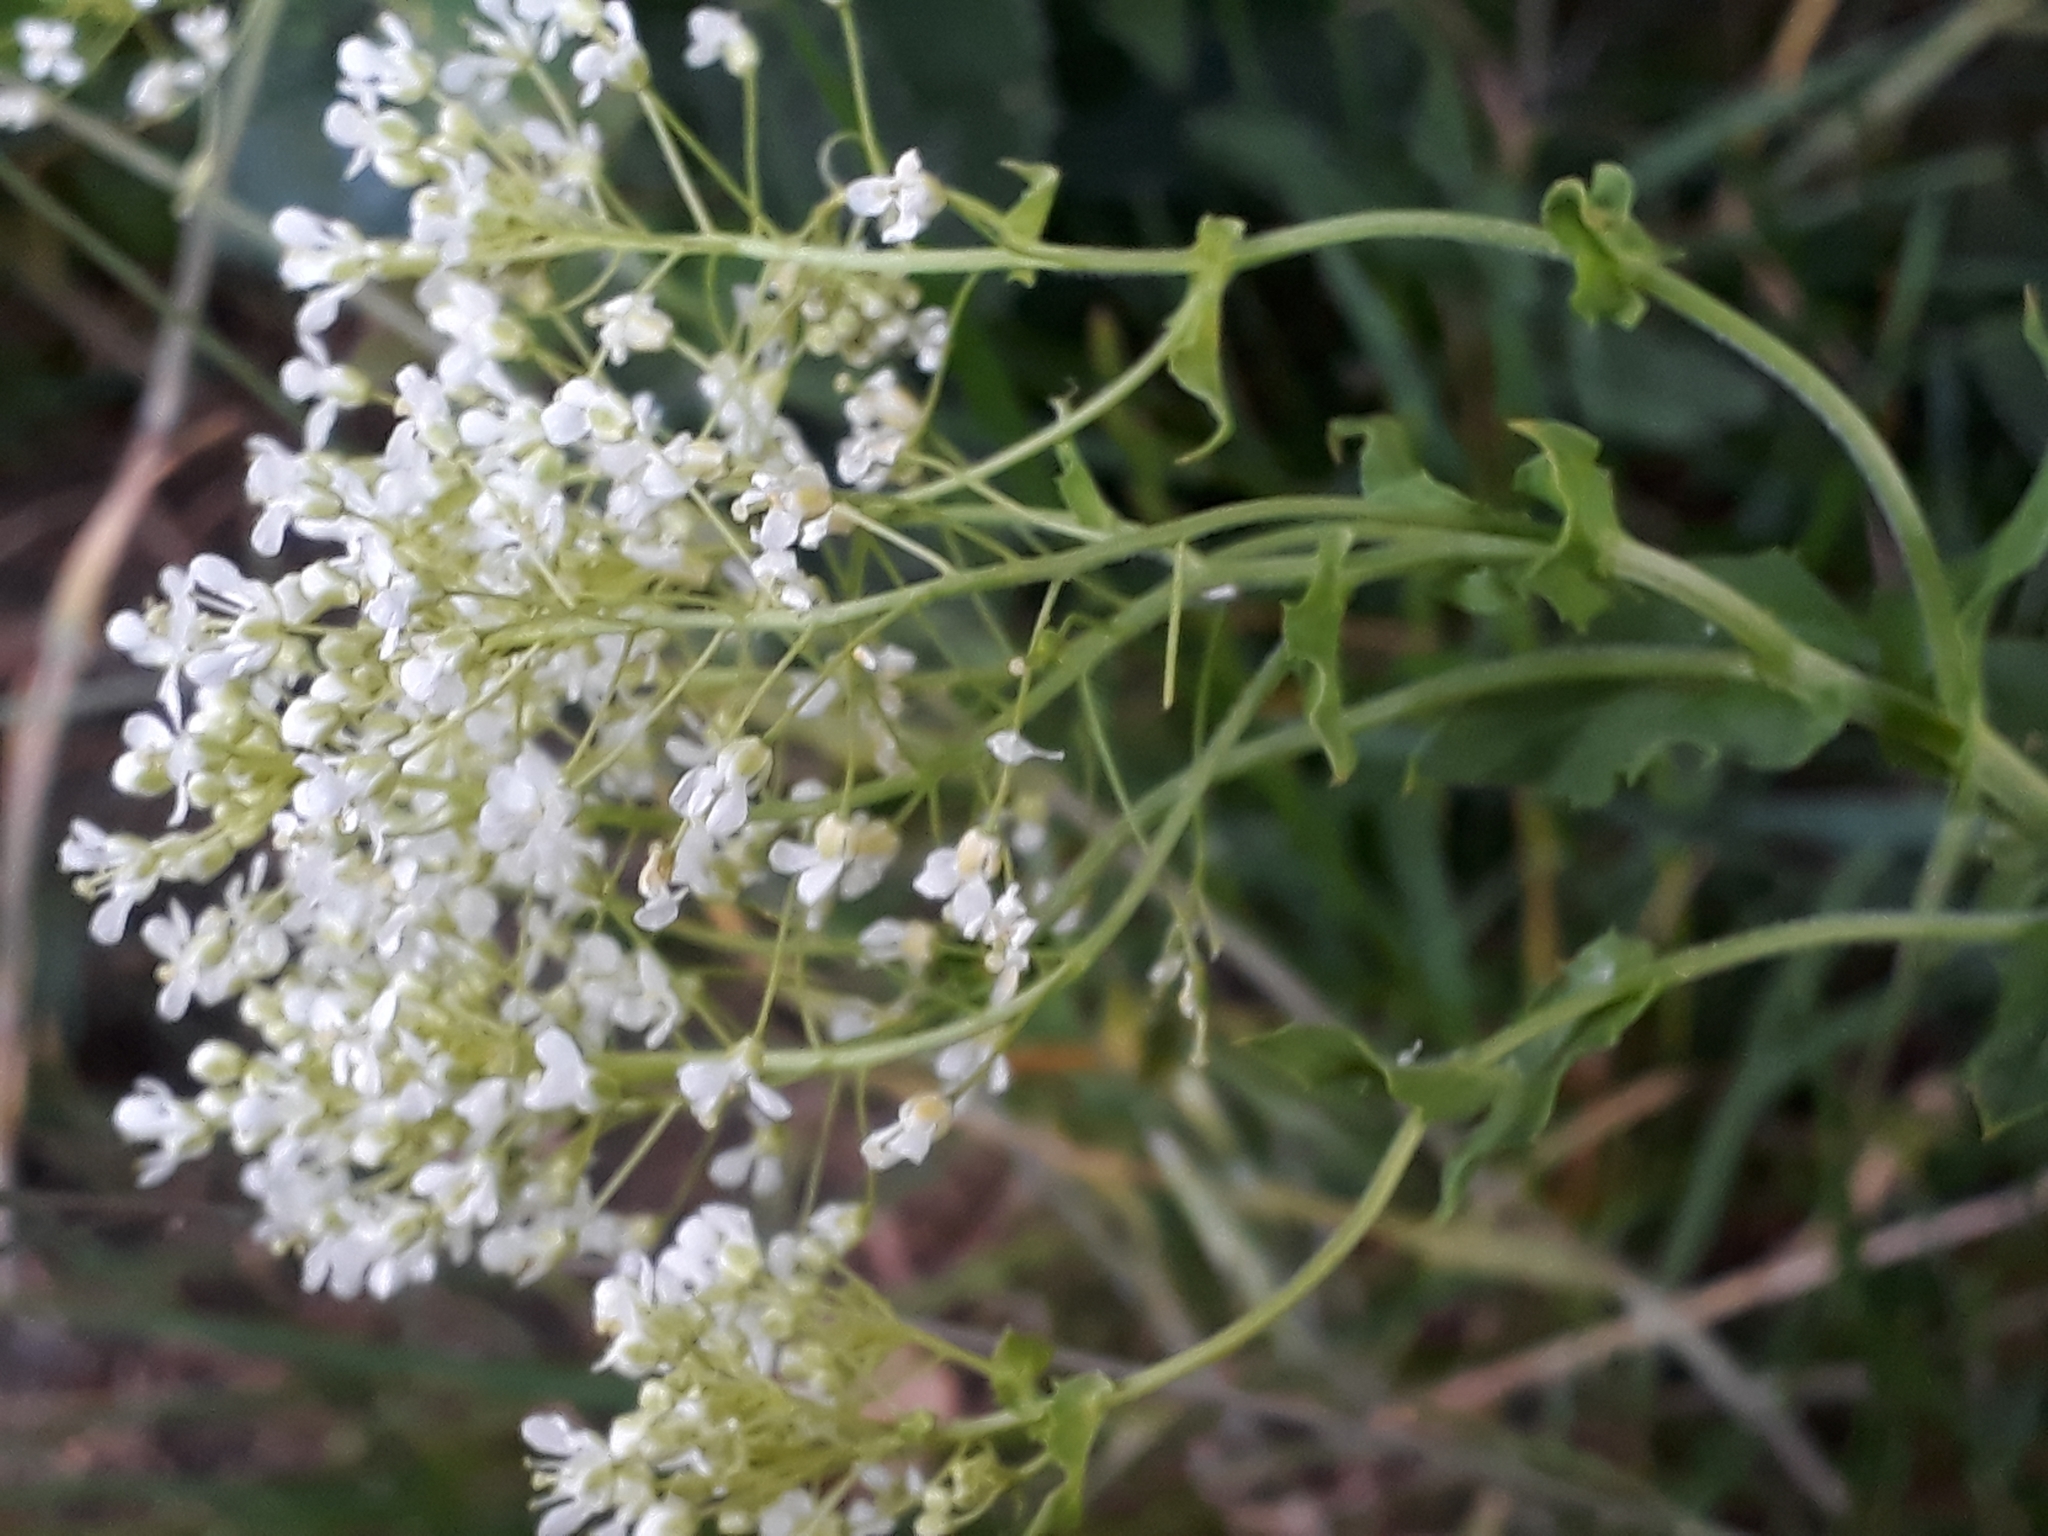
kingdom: Plantae
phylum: Tracheophyta
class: Magnoliopsida
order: Brassicales
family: Brassicaceae
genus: Lepidium
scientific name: Lepidium draba
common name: Hoary cress
